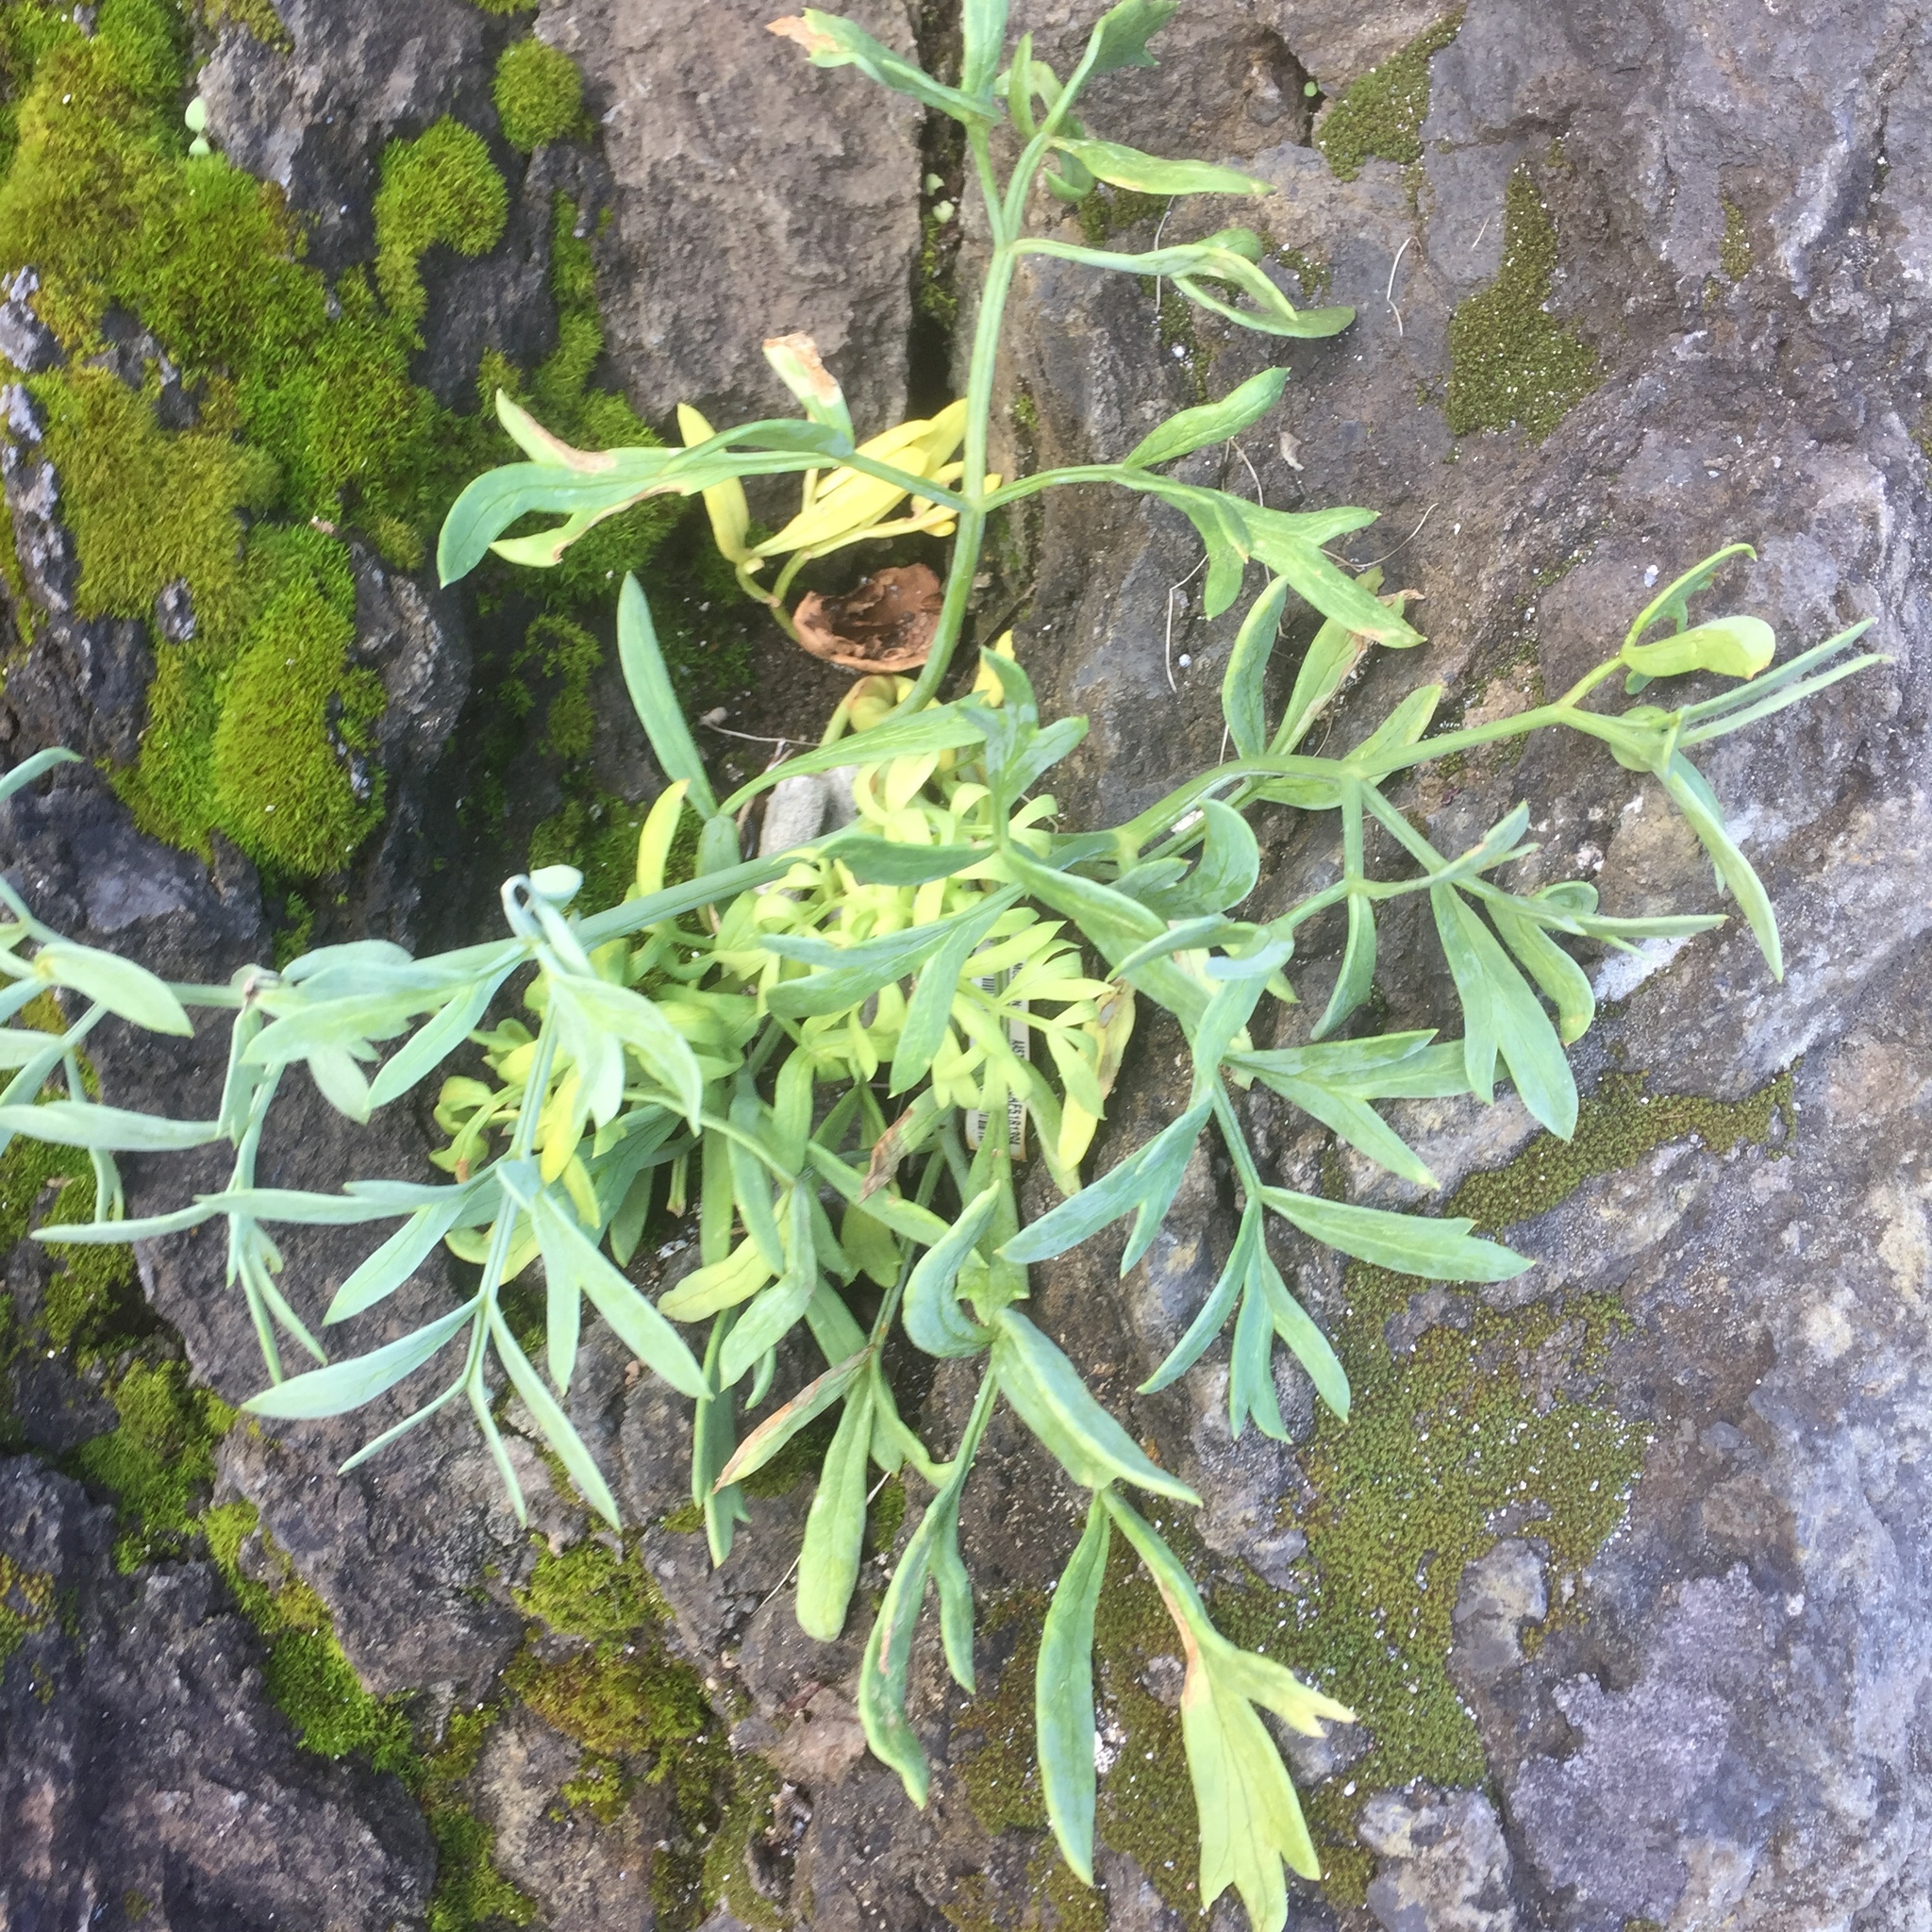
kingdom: Plantae
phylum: Tracheophyta
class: Magnoliopsida
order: Apiales
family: Apiaceae
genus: Crithmum
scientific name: Crithmum maritimum
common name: Rock samphire
